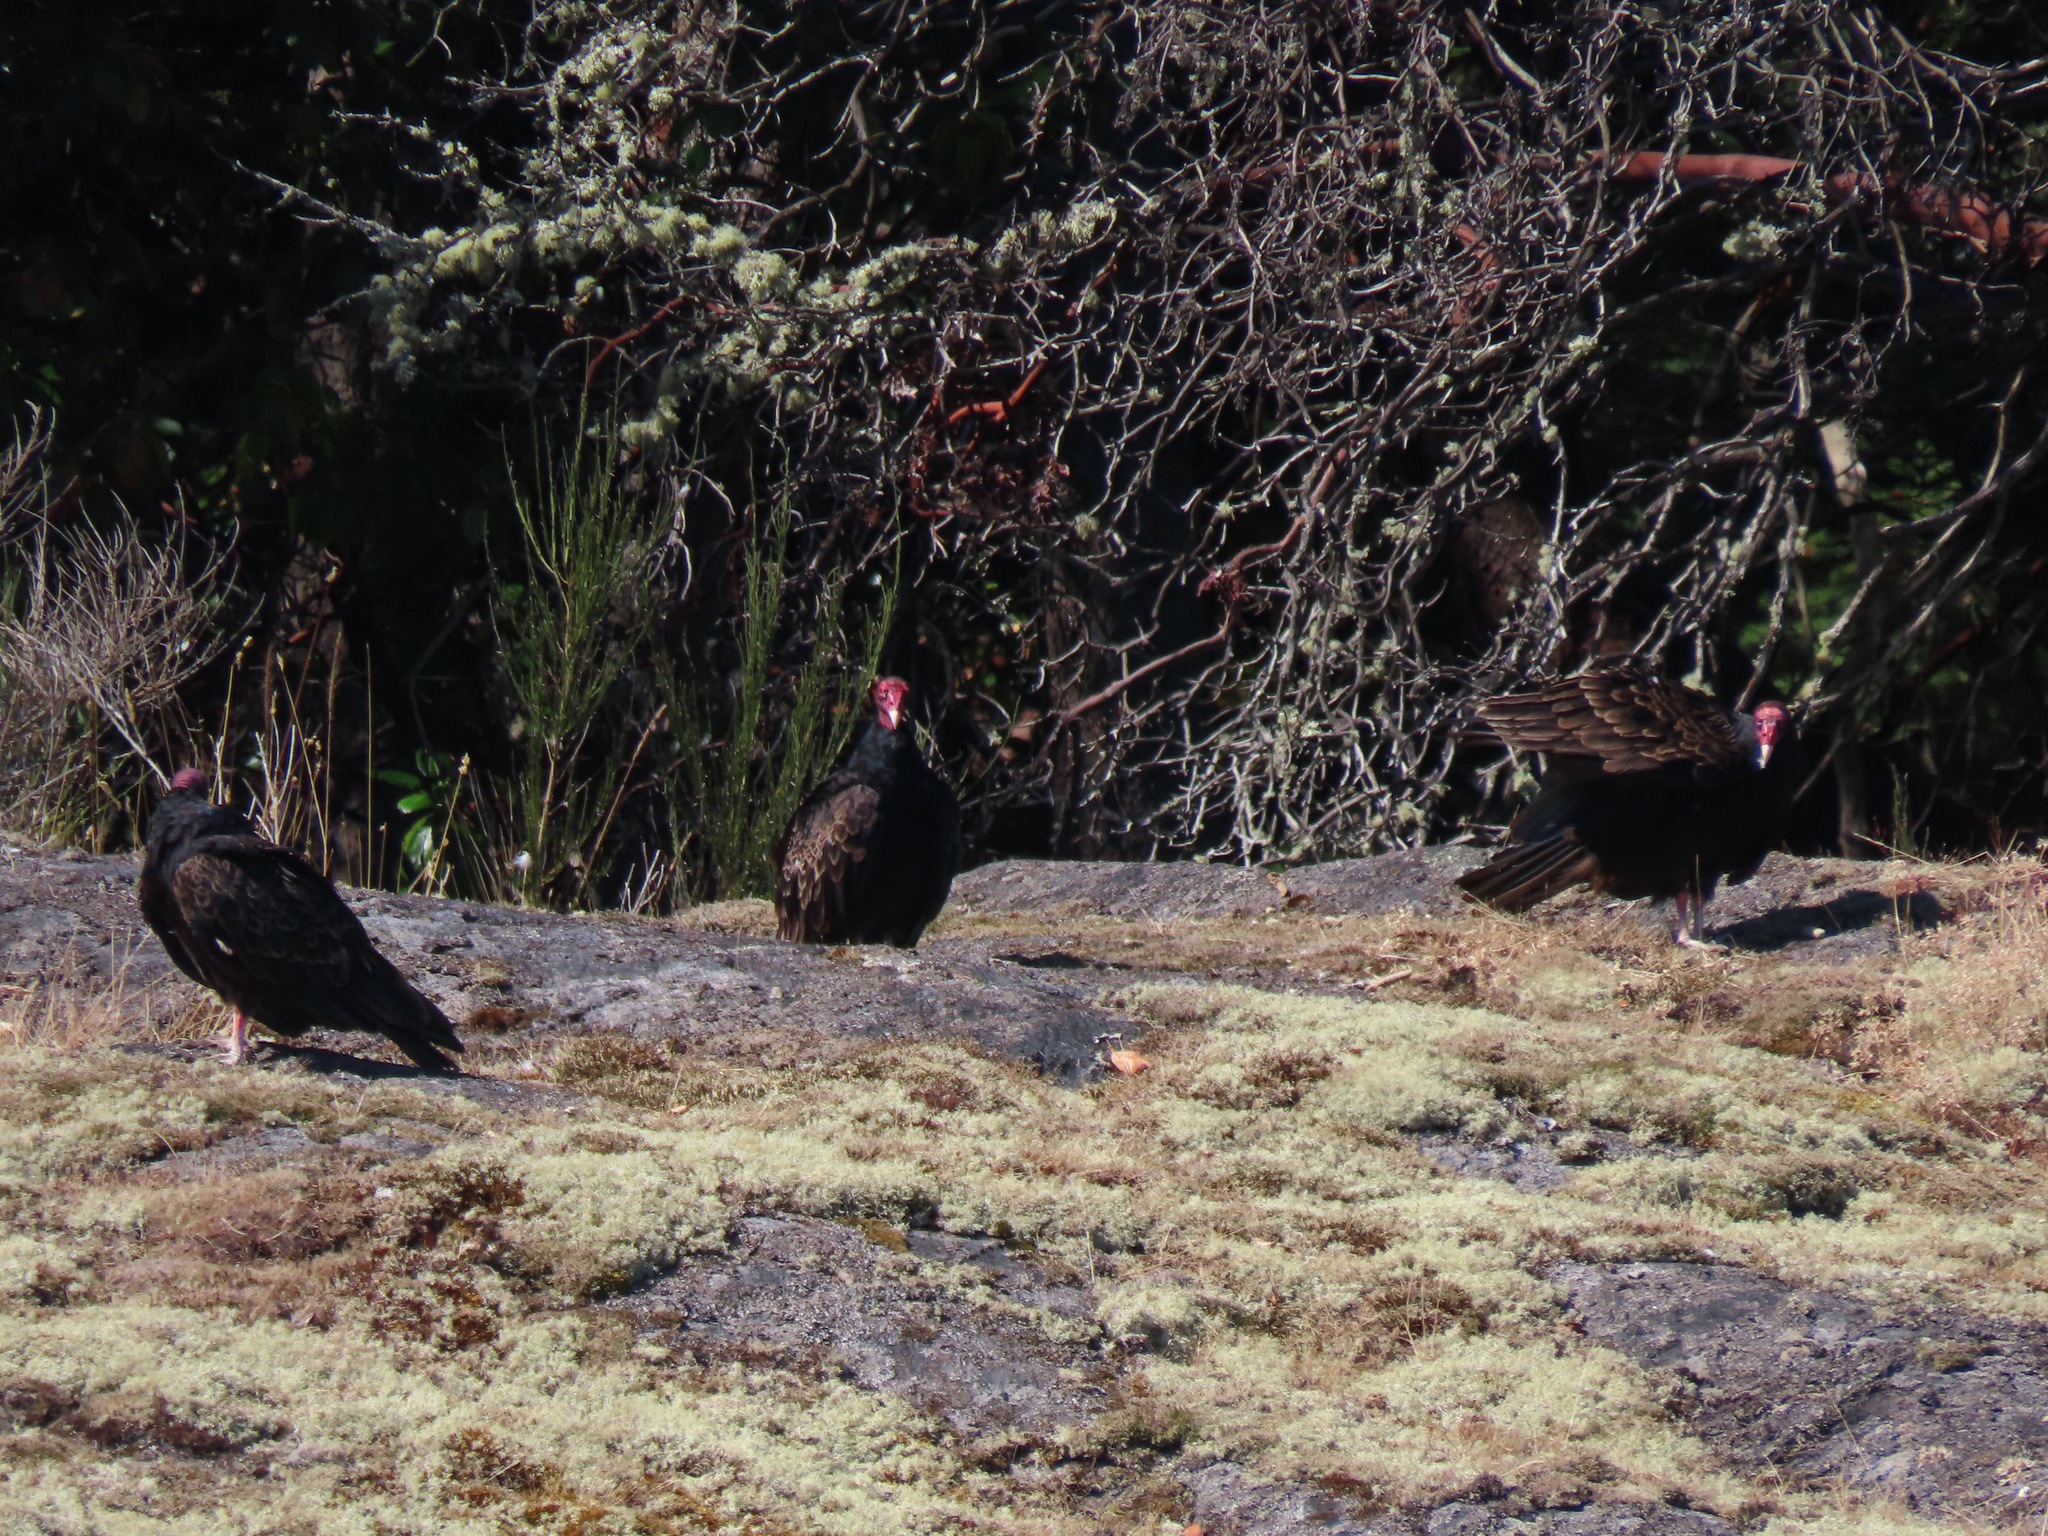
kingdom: Animalia
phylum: Chordata
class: Aves
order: Accipitriformes
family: Cathartidae
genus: Cathartes
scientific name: Cathartes aura
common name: Turkey vulture
